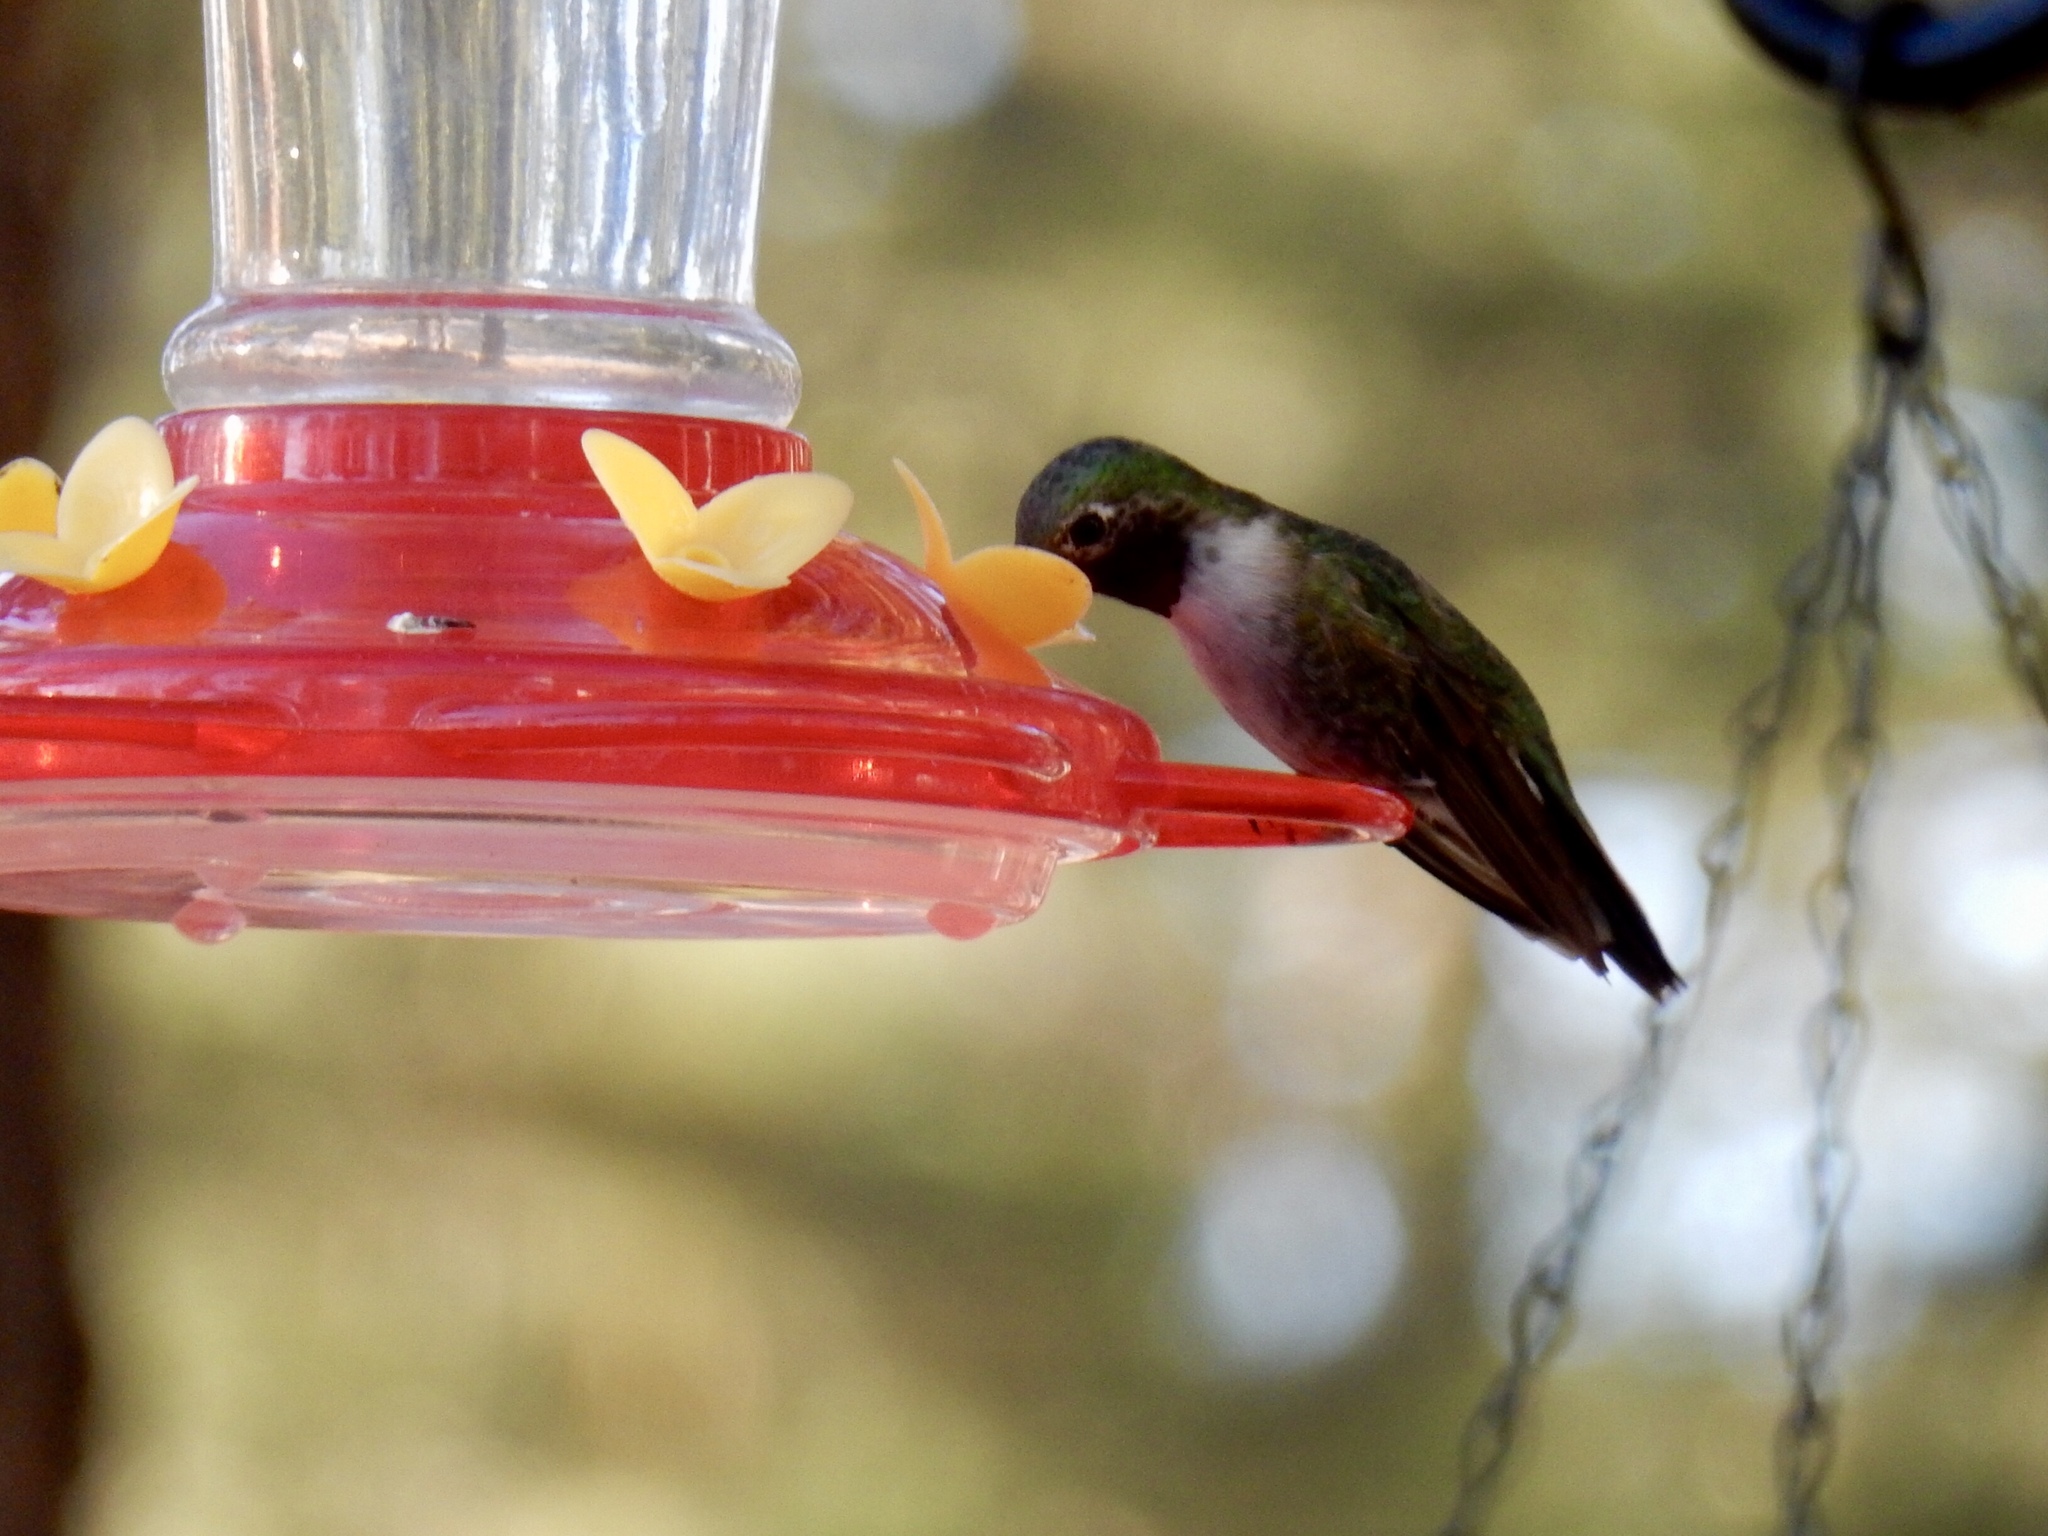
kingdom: Animalia
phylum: Chordata
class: Aves
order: Apodiformes
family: Trochilidae
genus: Selasphorus
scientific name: Selasphorus platycercus
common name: Broad-tailed hummingbird
